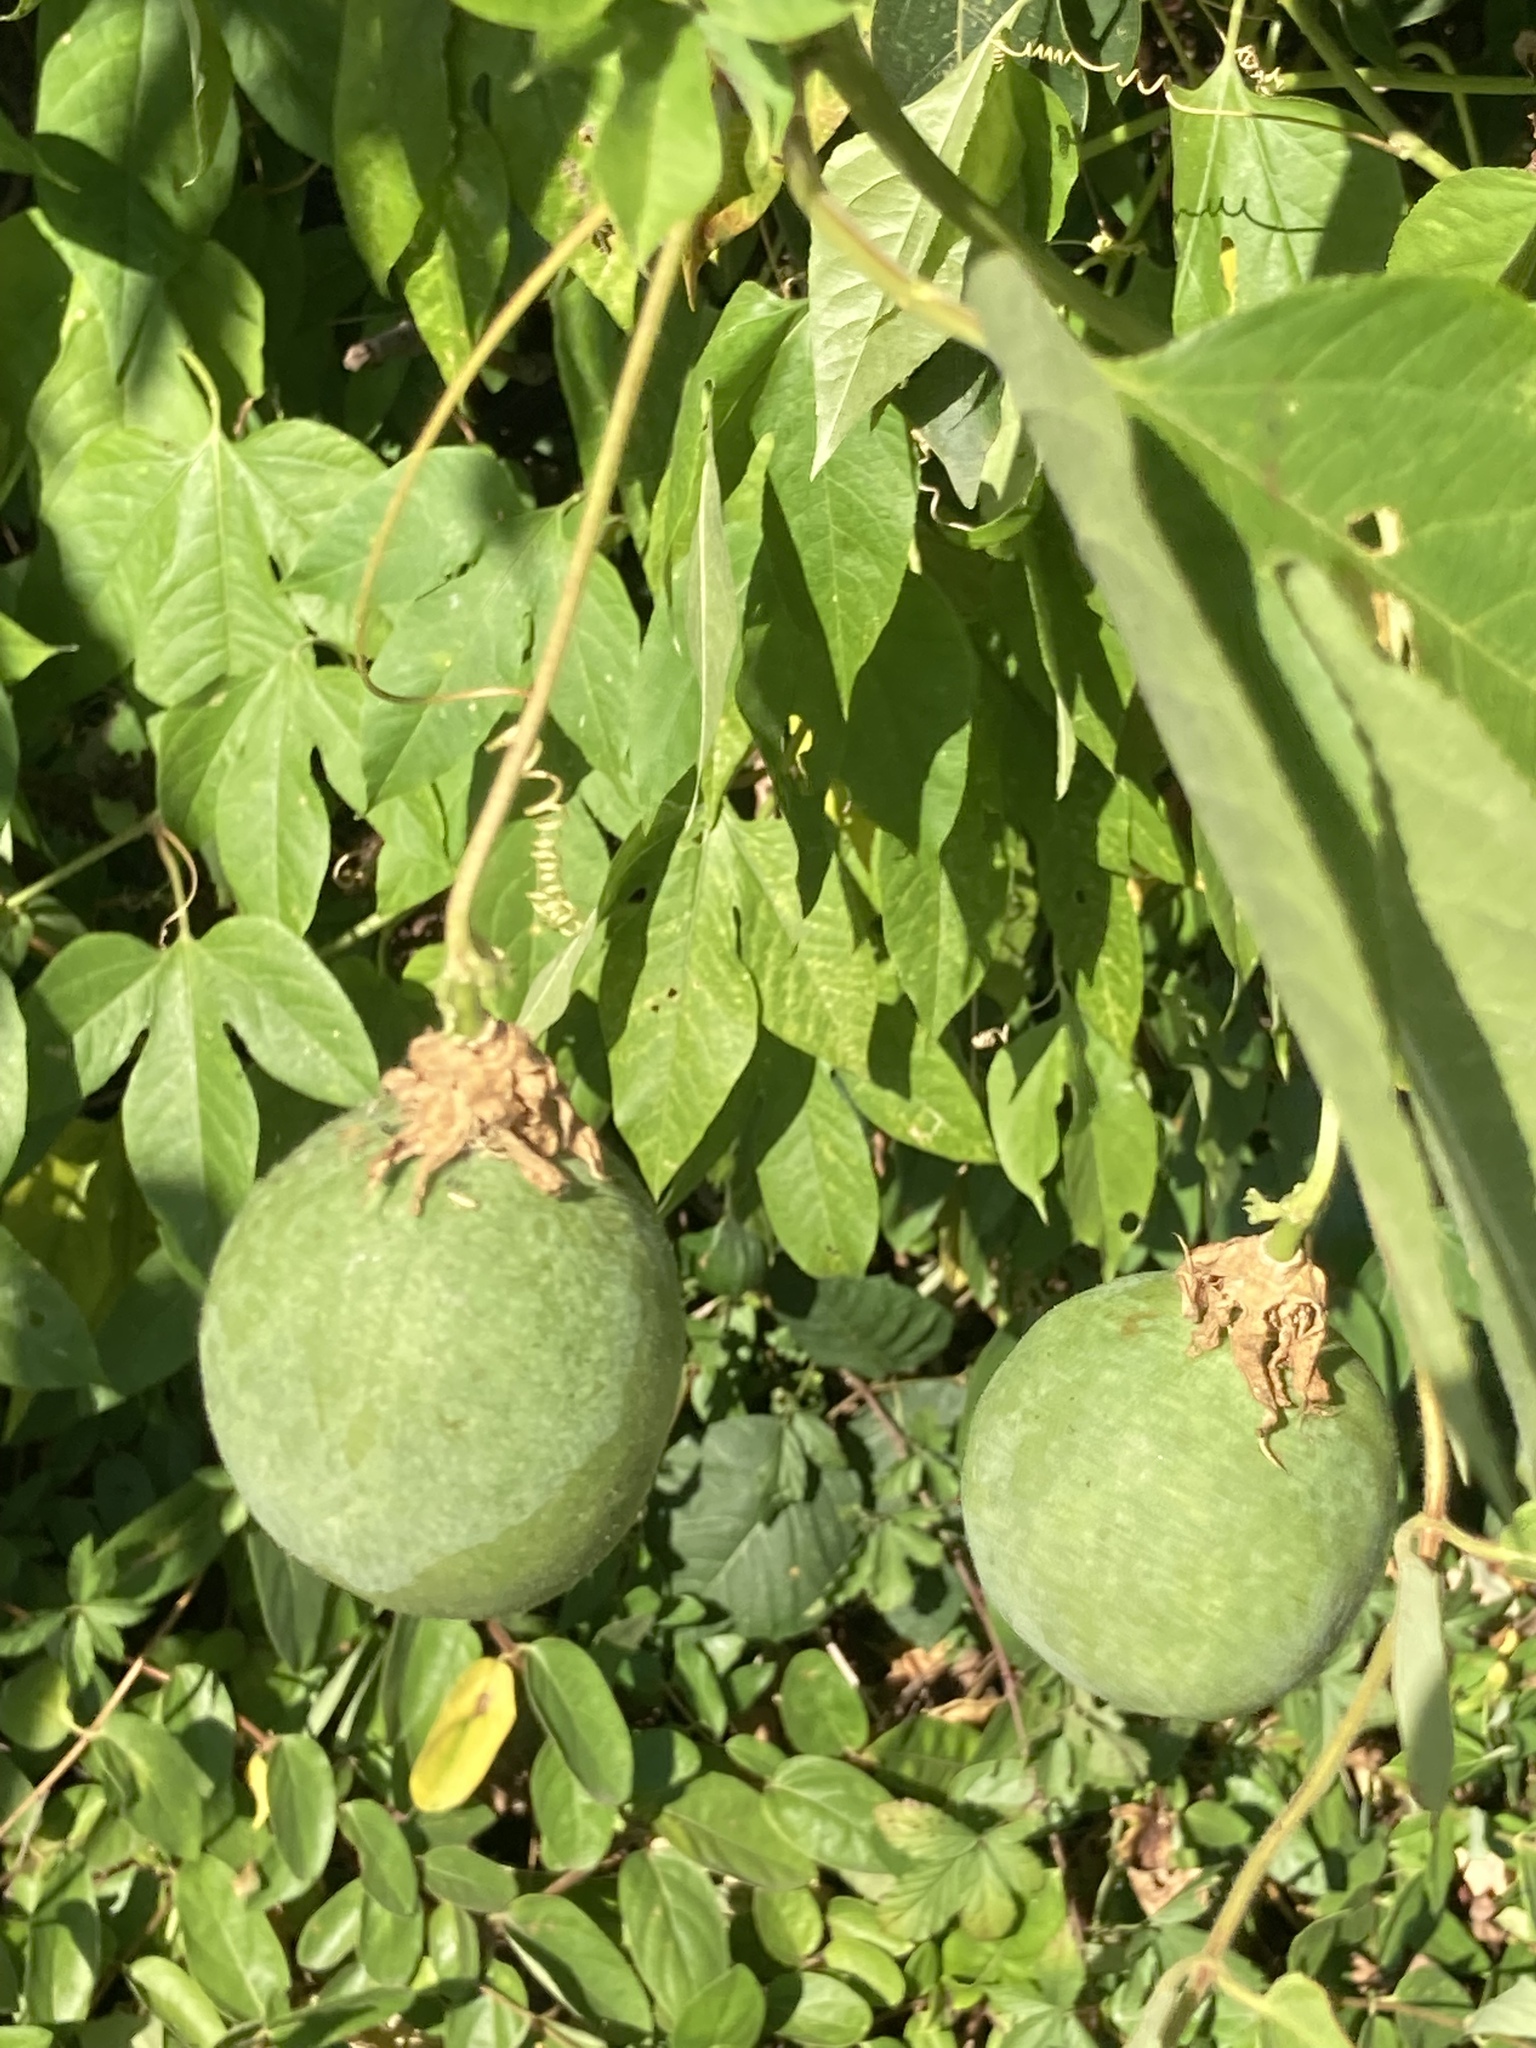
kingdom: Plantae
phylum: Tracheophyta
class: Magnoliopsida
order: Malpighiales
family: Passifloraceae
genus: Passiflora
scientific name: Passiflora incarnata
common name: Apricot-vine
